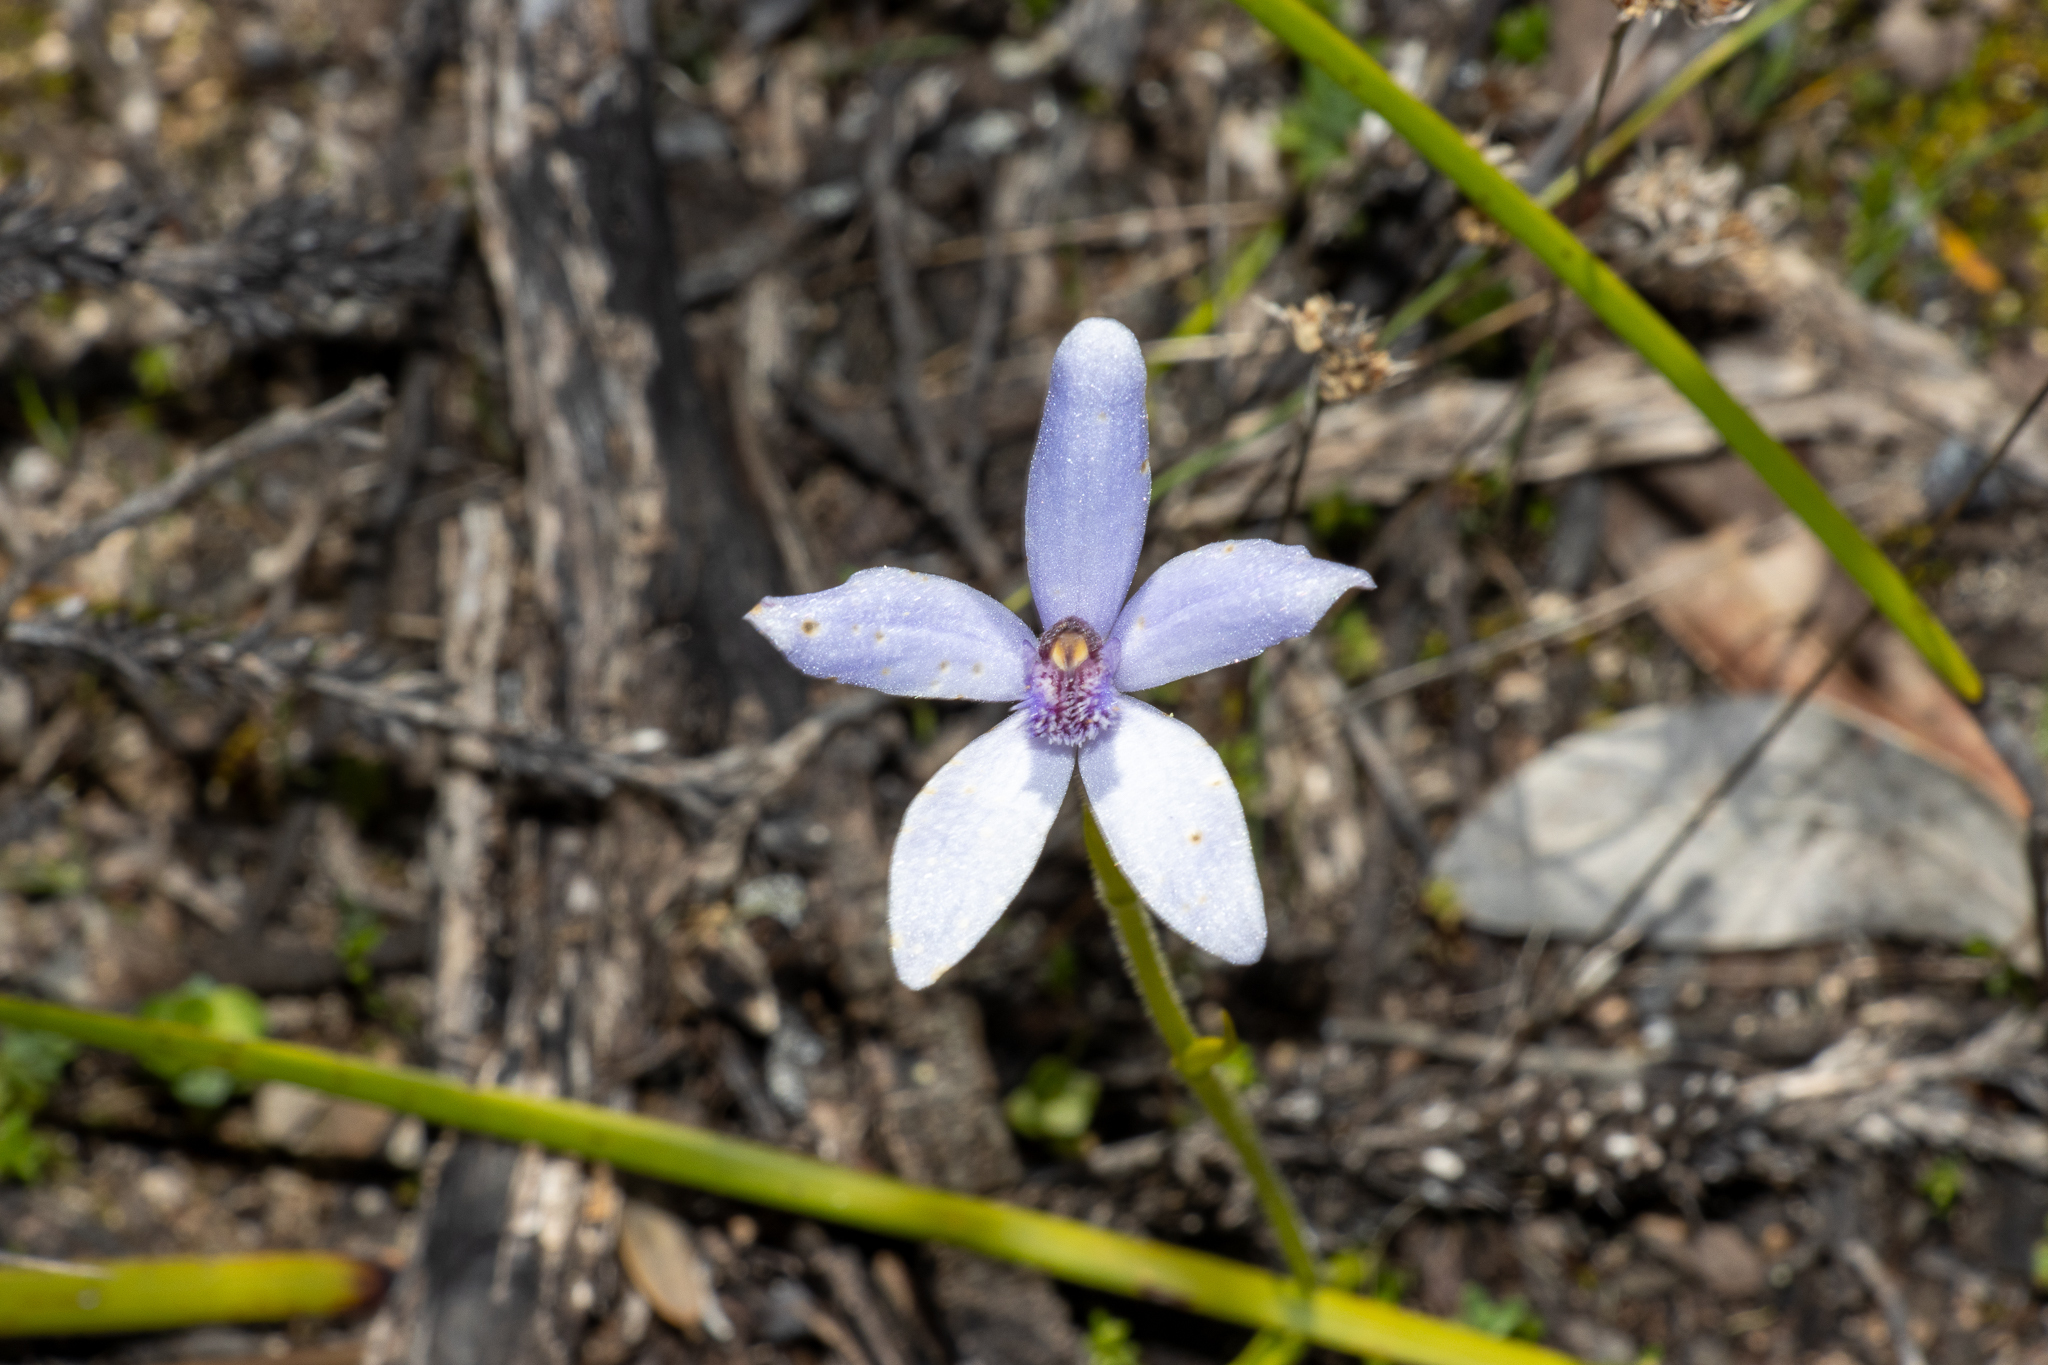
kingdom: Plantae
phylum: Tracheophyta
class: Liliopsida
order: Asparagales
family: Orchidaceae
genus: Pheladenia
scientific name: Pheladenia deformis
